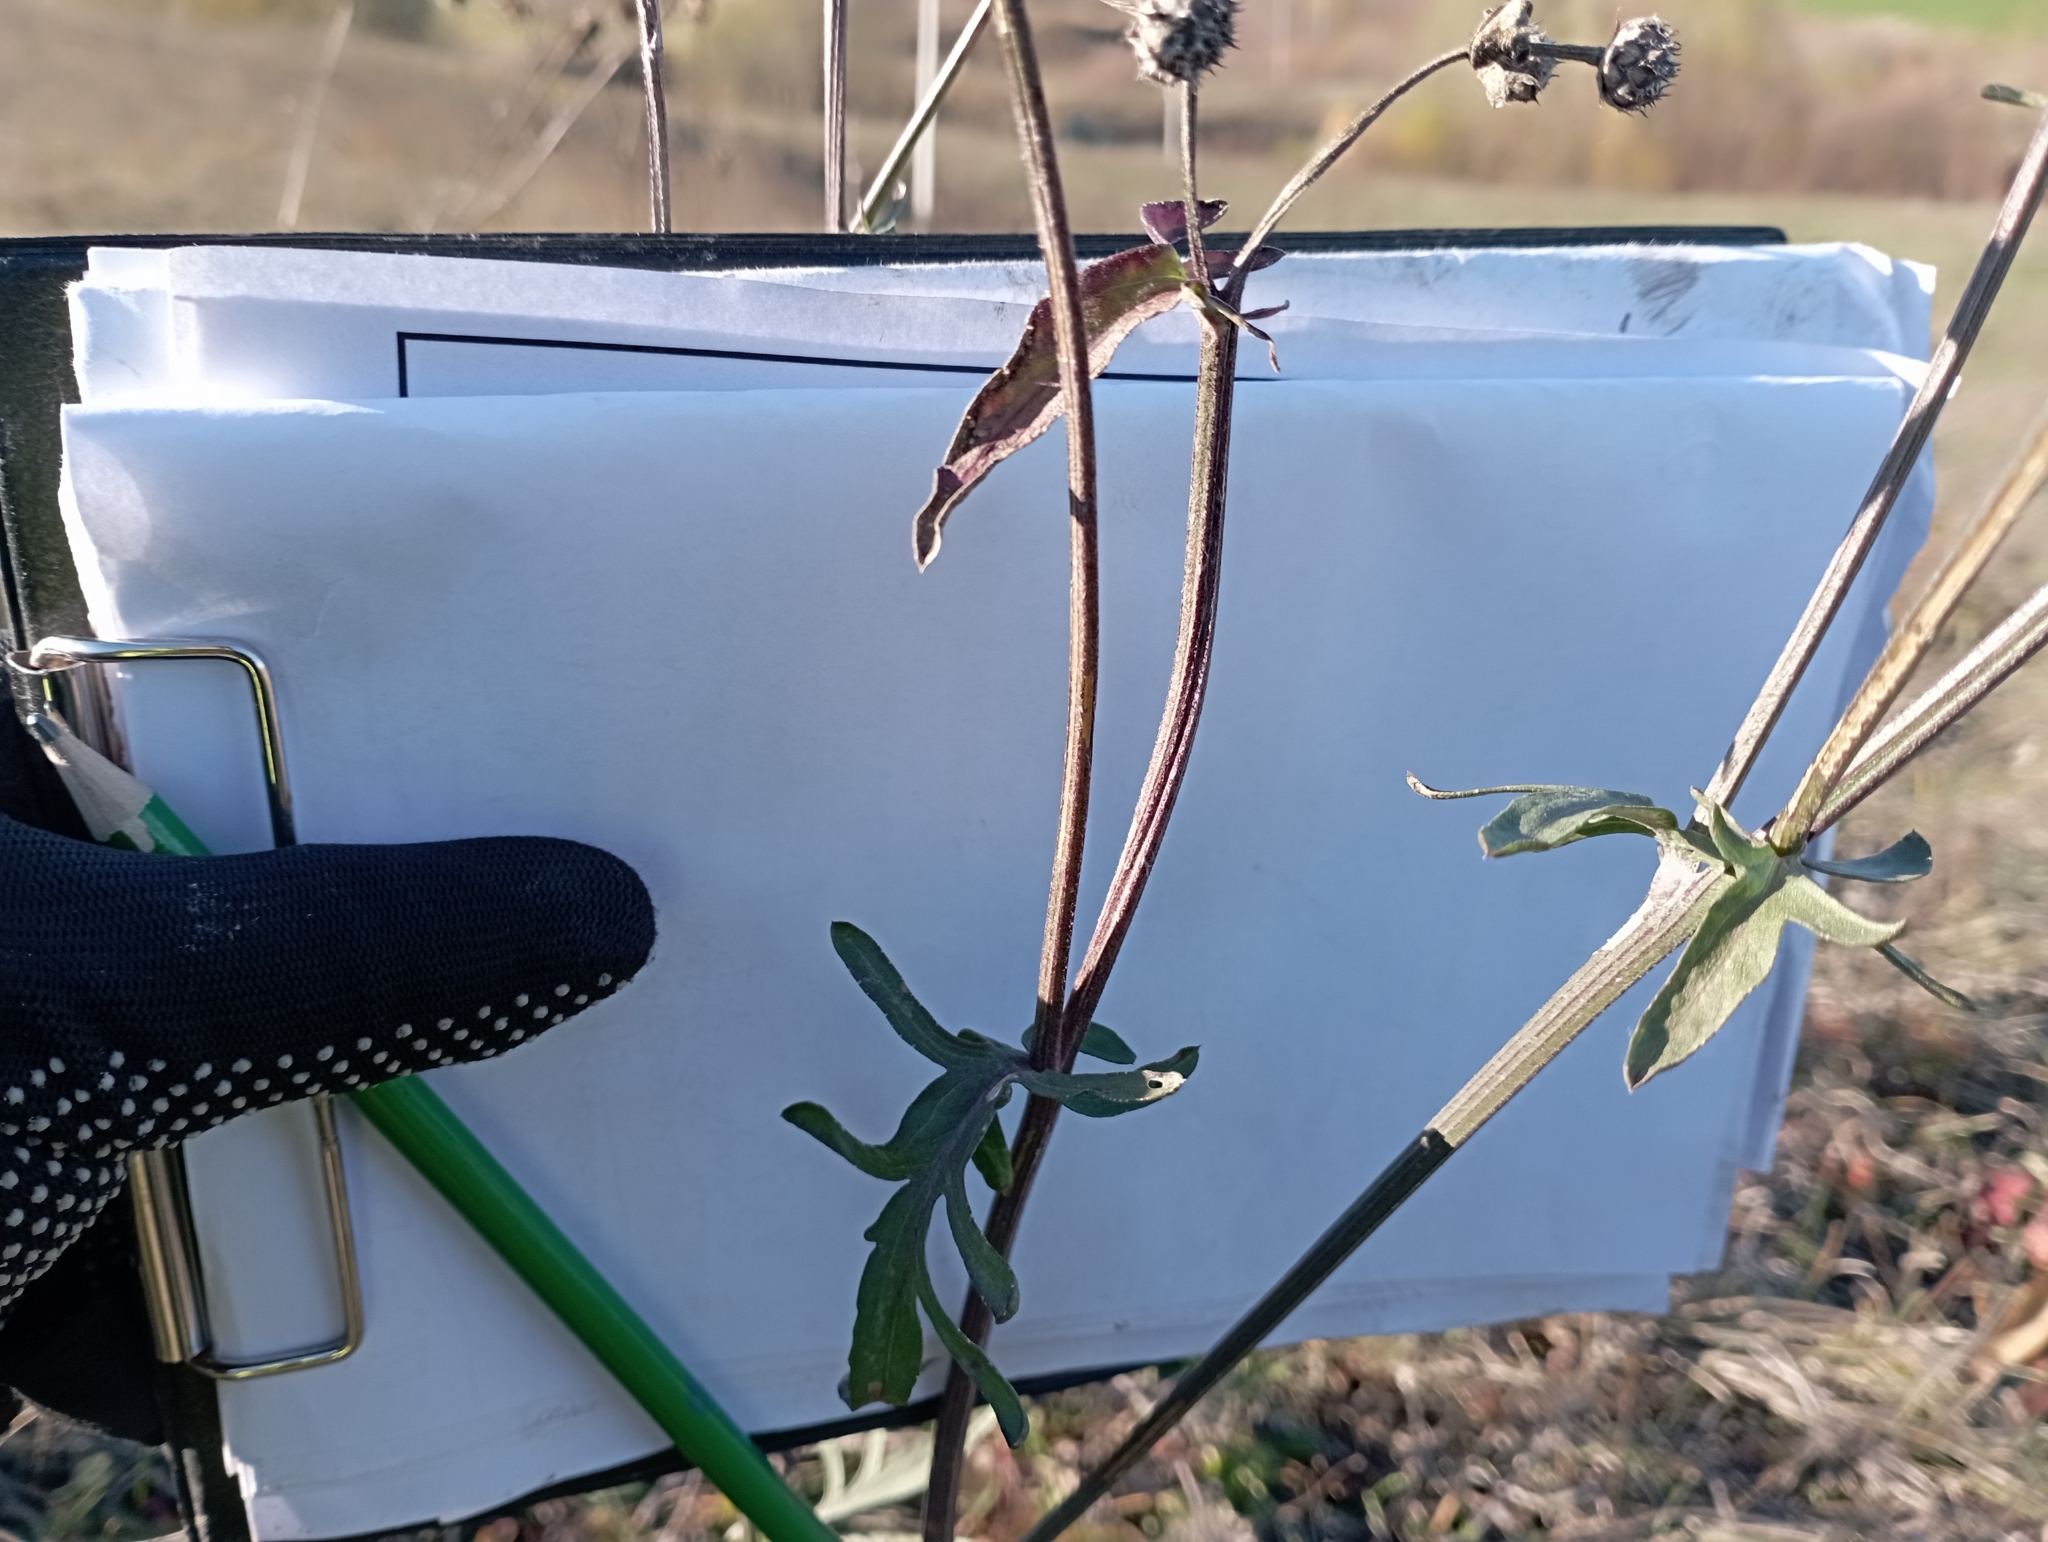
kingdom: Plantae
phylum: Tracheophyta
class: Magnoliopsida
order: Asterales
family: Asteraceae
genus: Centaurea
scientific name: Centaurea scabiosa
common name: Greater knapweed
